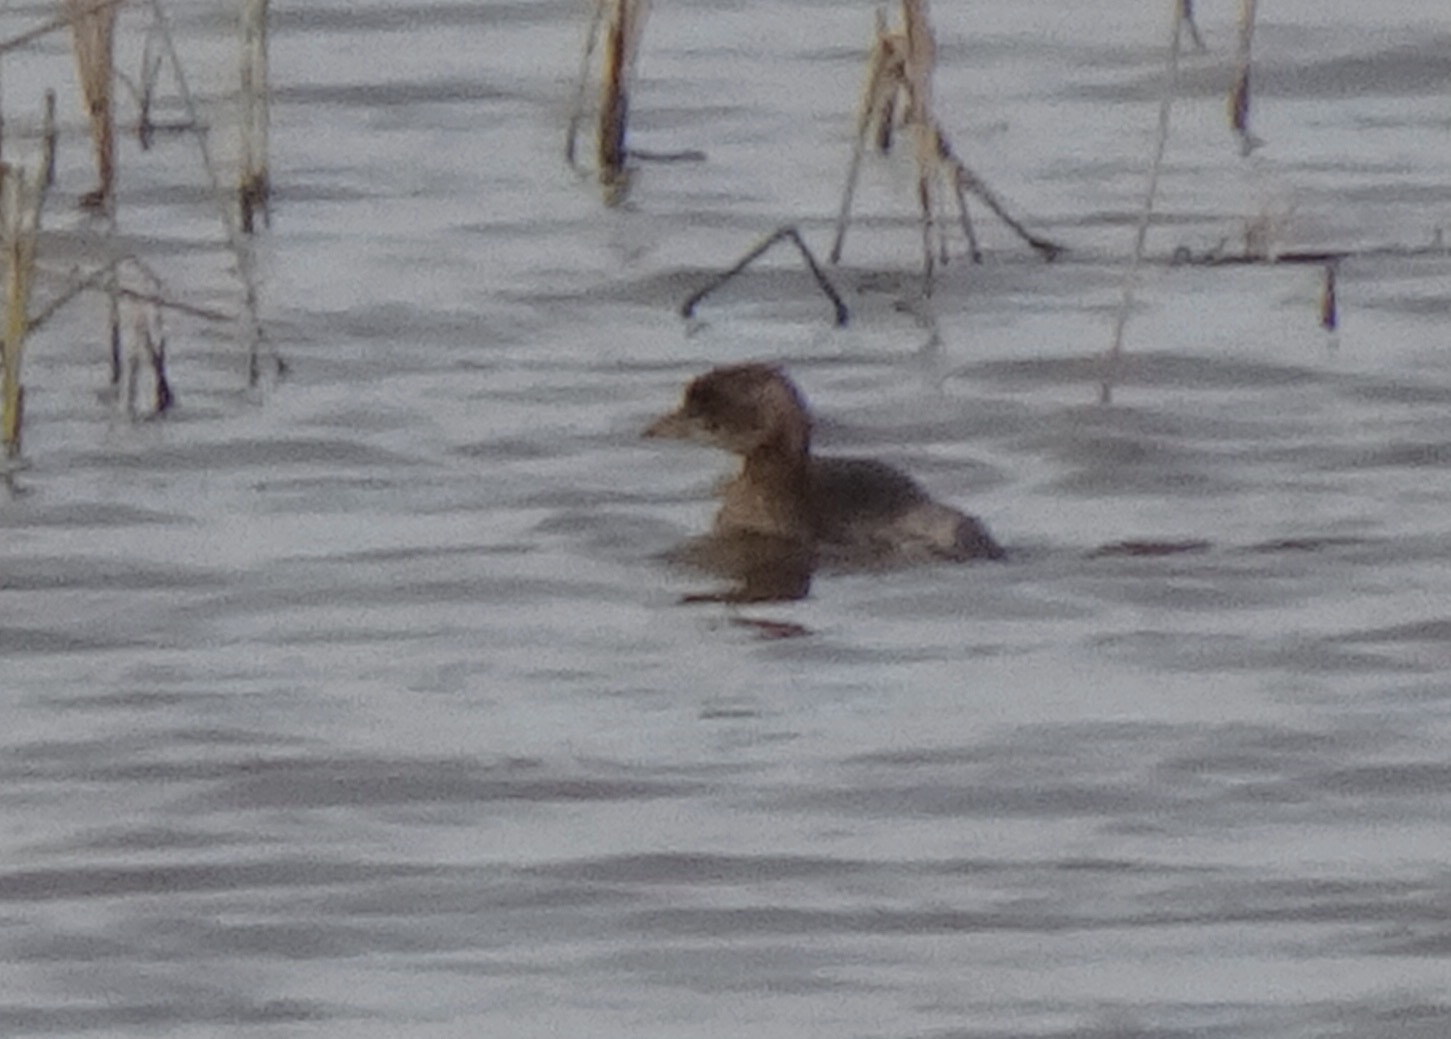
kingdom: Animalia
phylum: Chordata
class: Aves
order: Podicipediformes
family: Podicipedidae
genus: Tachybaptus
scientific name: Tachybaptus ruficollis
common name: Little grebe
